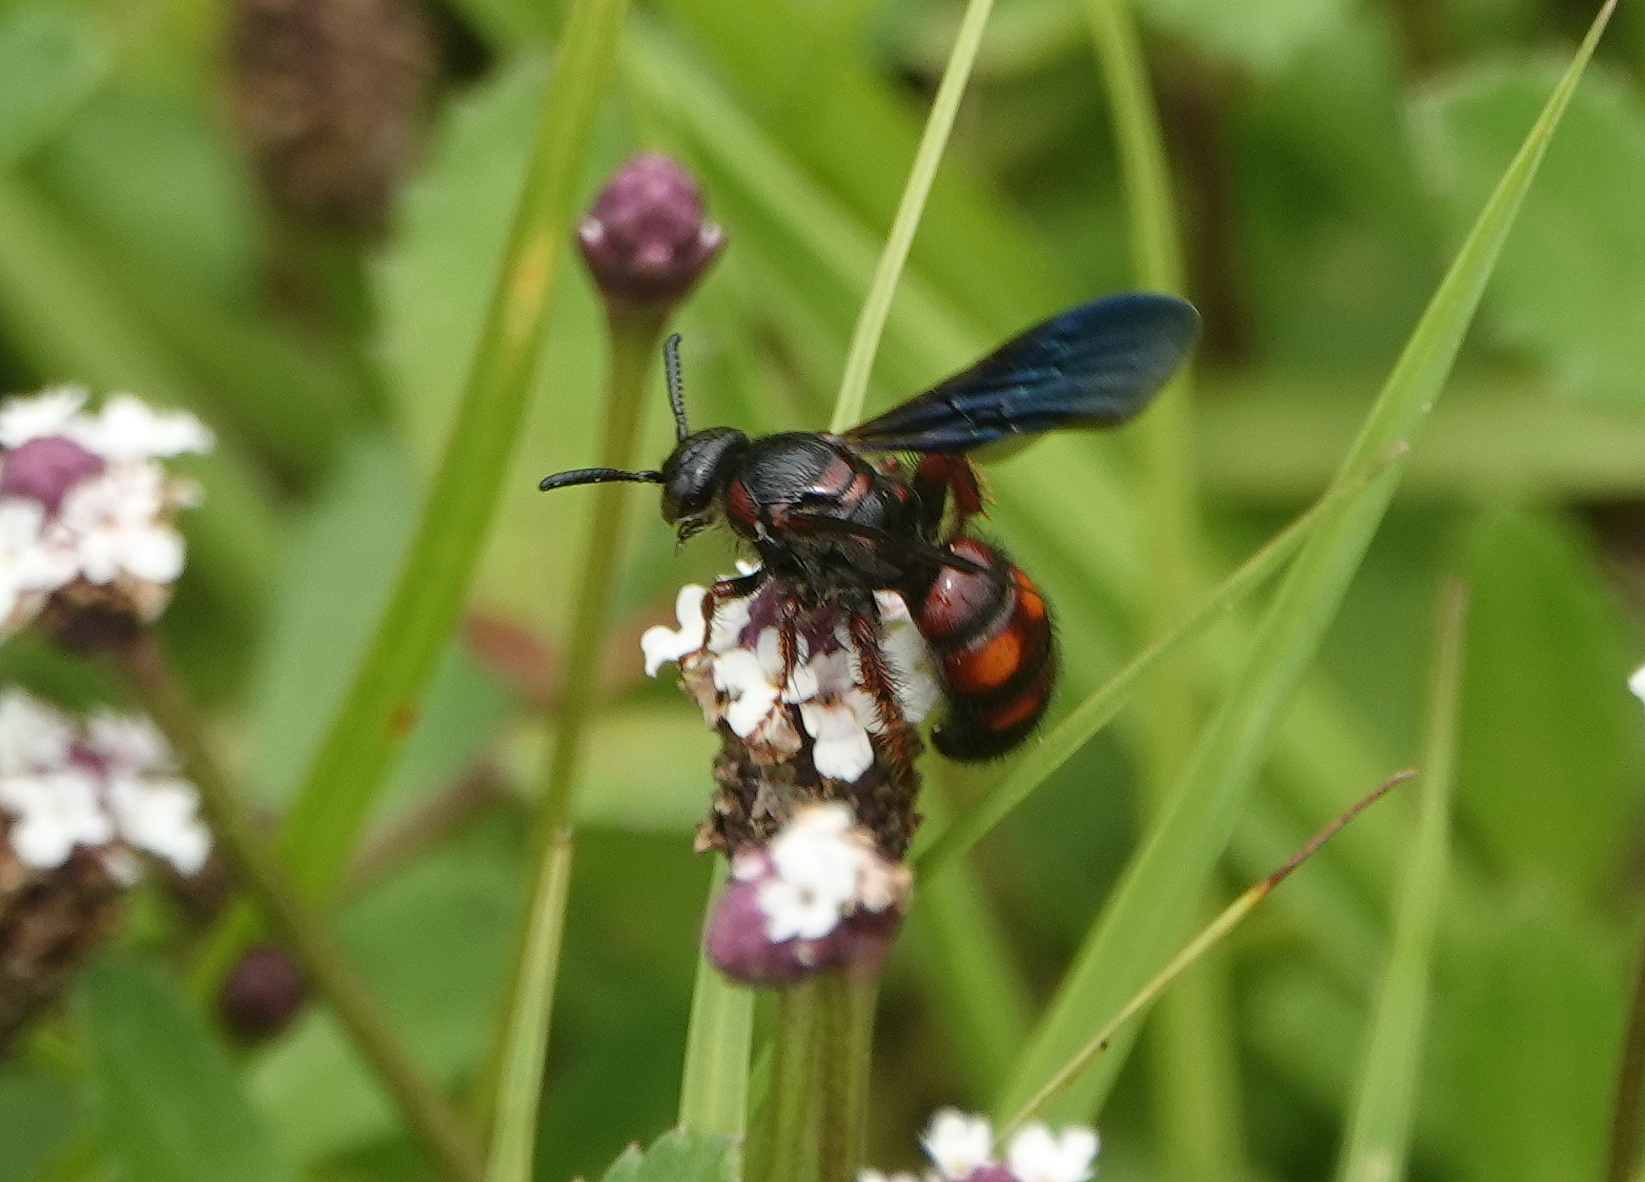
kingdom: Animalia
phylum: Arthropoda
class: Insecta
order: Hymenoptera
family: Scoliidae
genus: Scolia
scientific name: Scolia nobilitata
